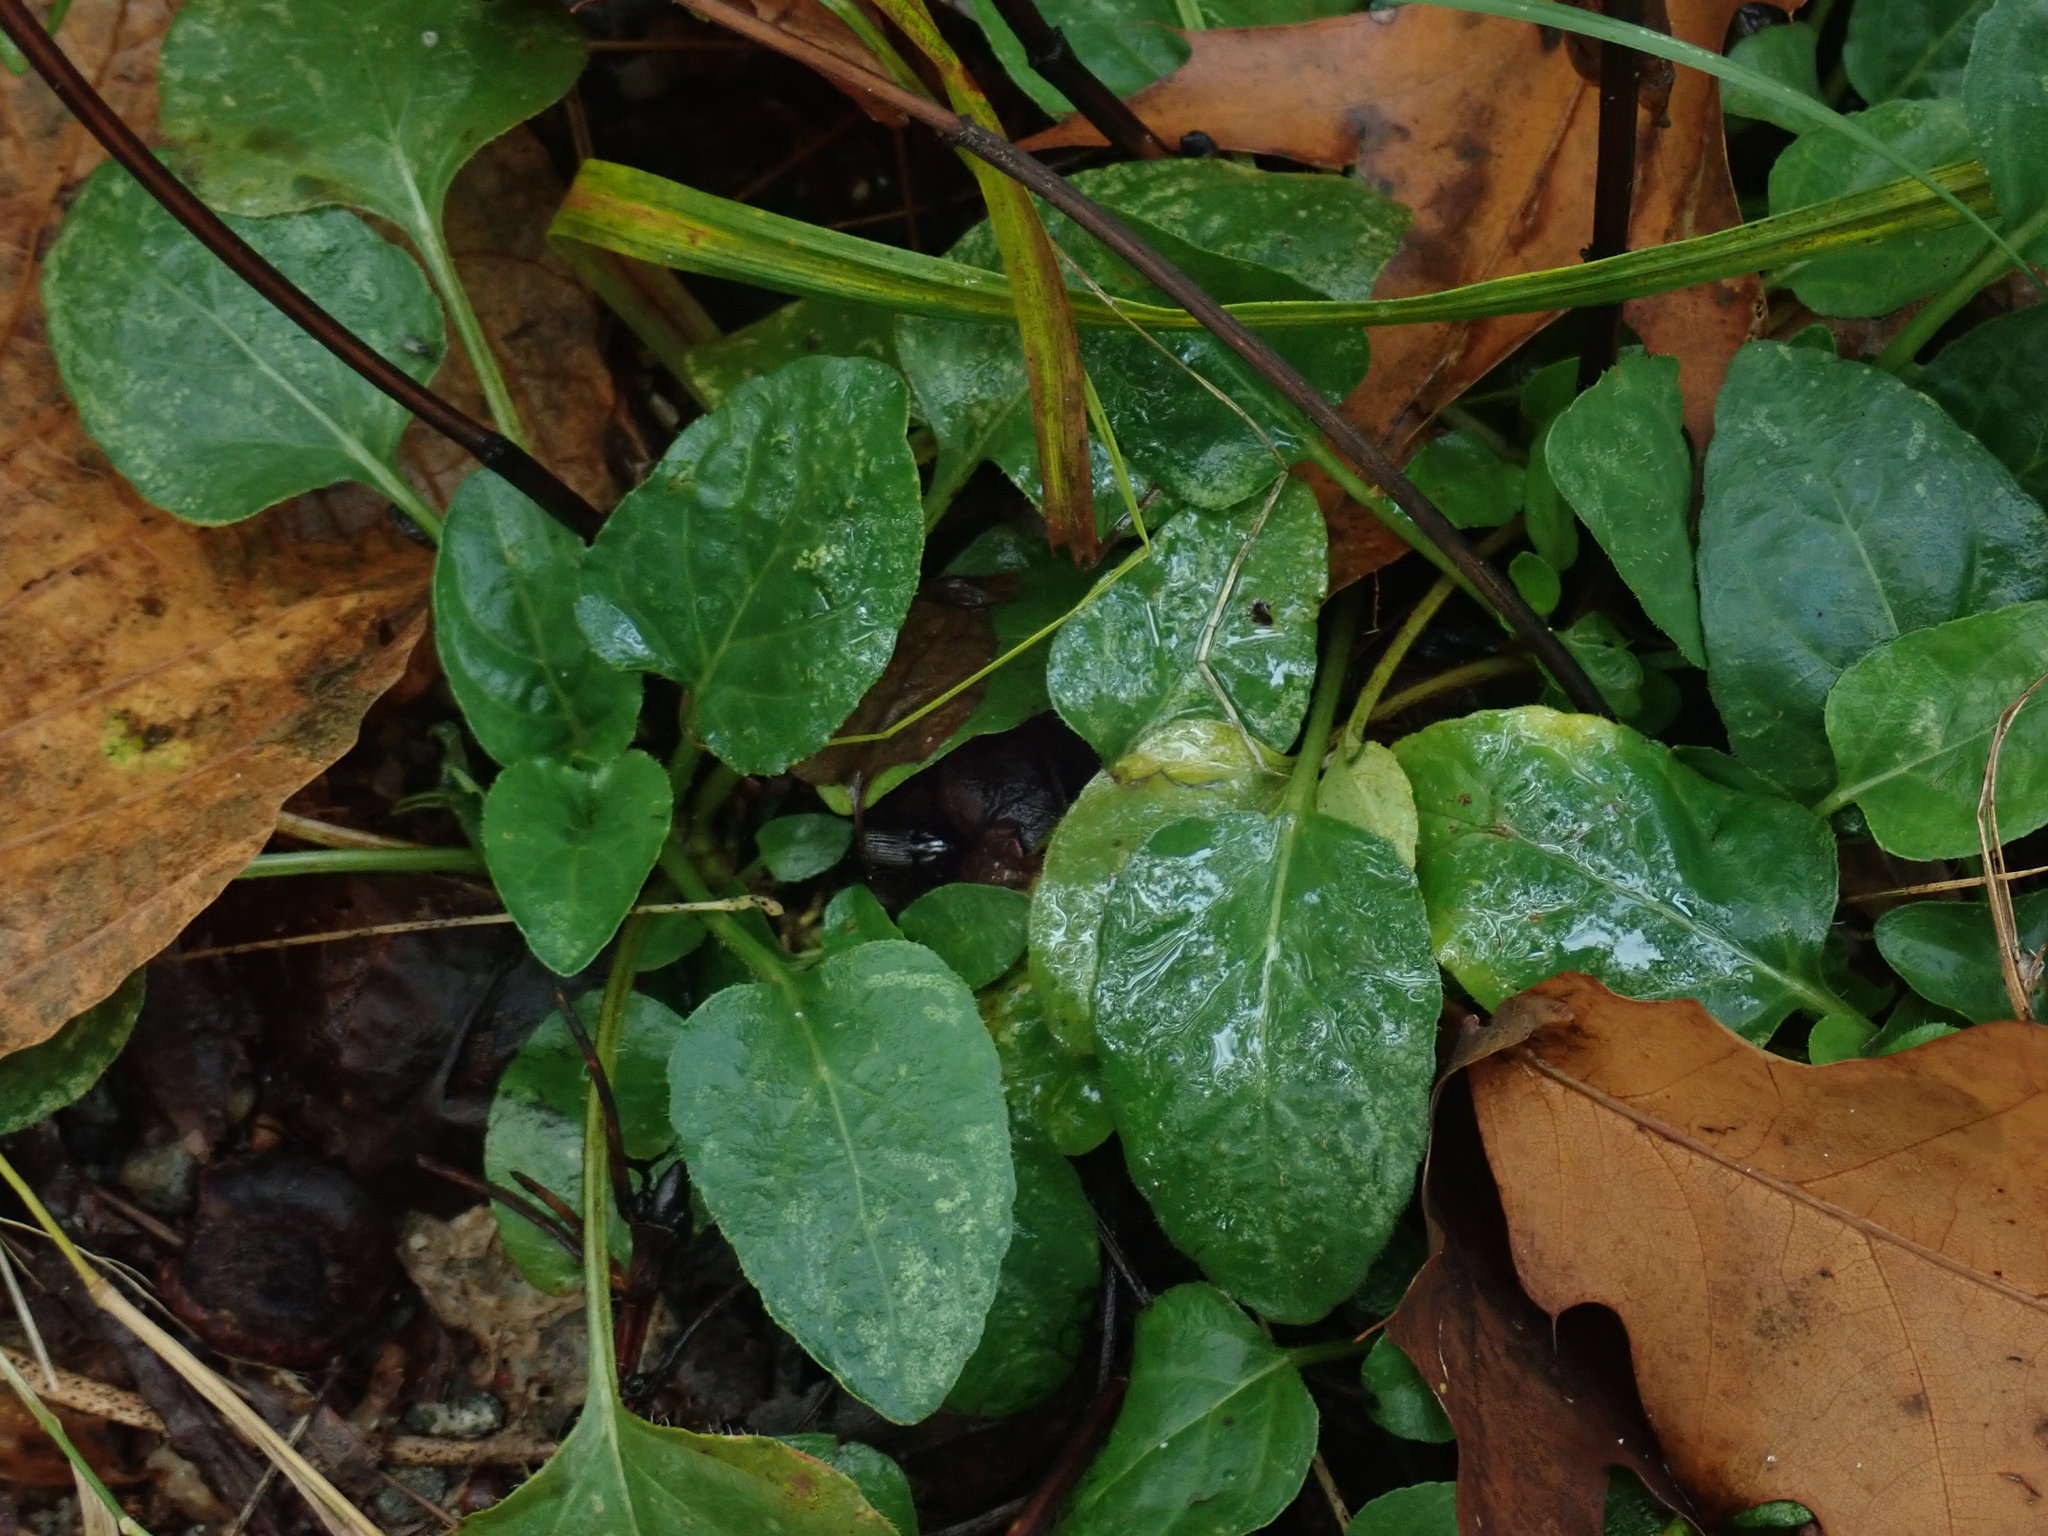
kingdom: Plantae
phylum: Tracheophyta
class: Magnoliopsida
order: Lamiales
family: Lamiaceae
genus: Prunella
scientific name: Prunella vulgaris
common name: Heal-all
